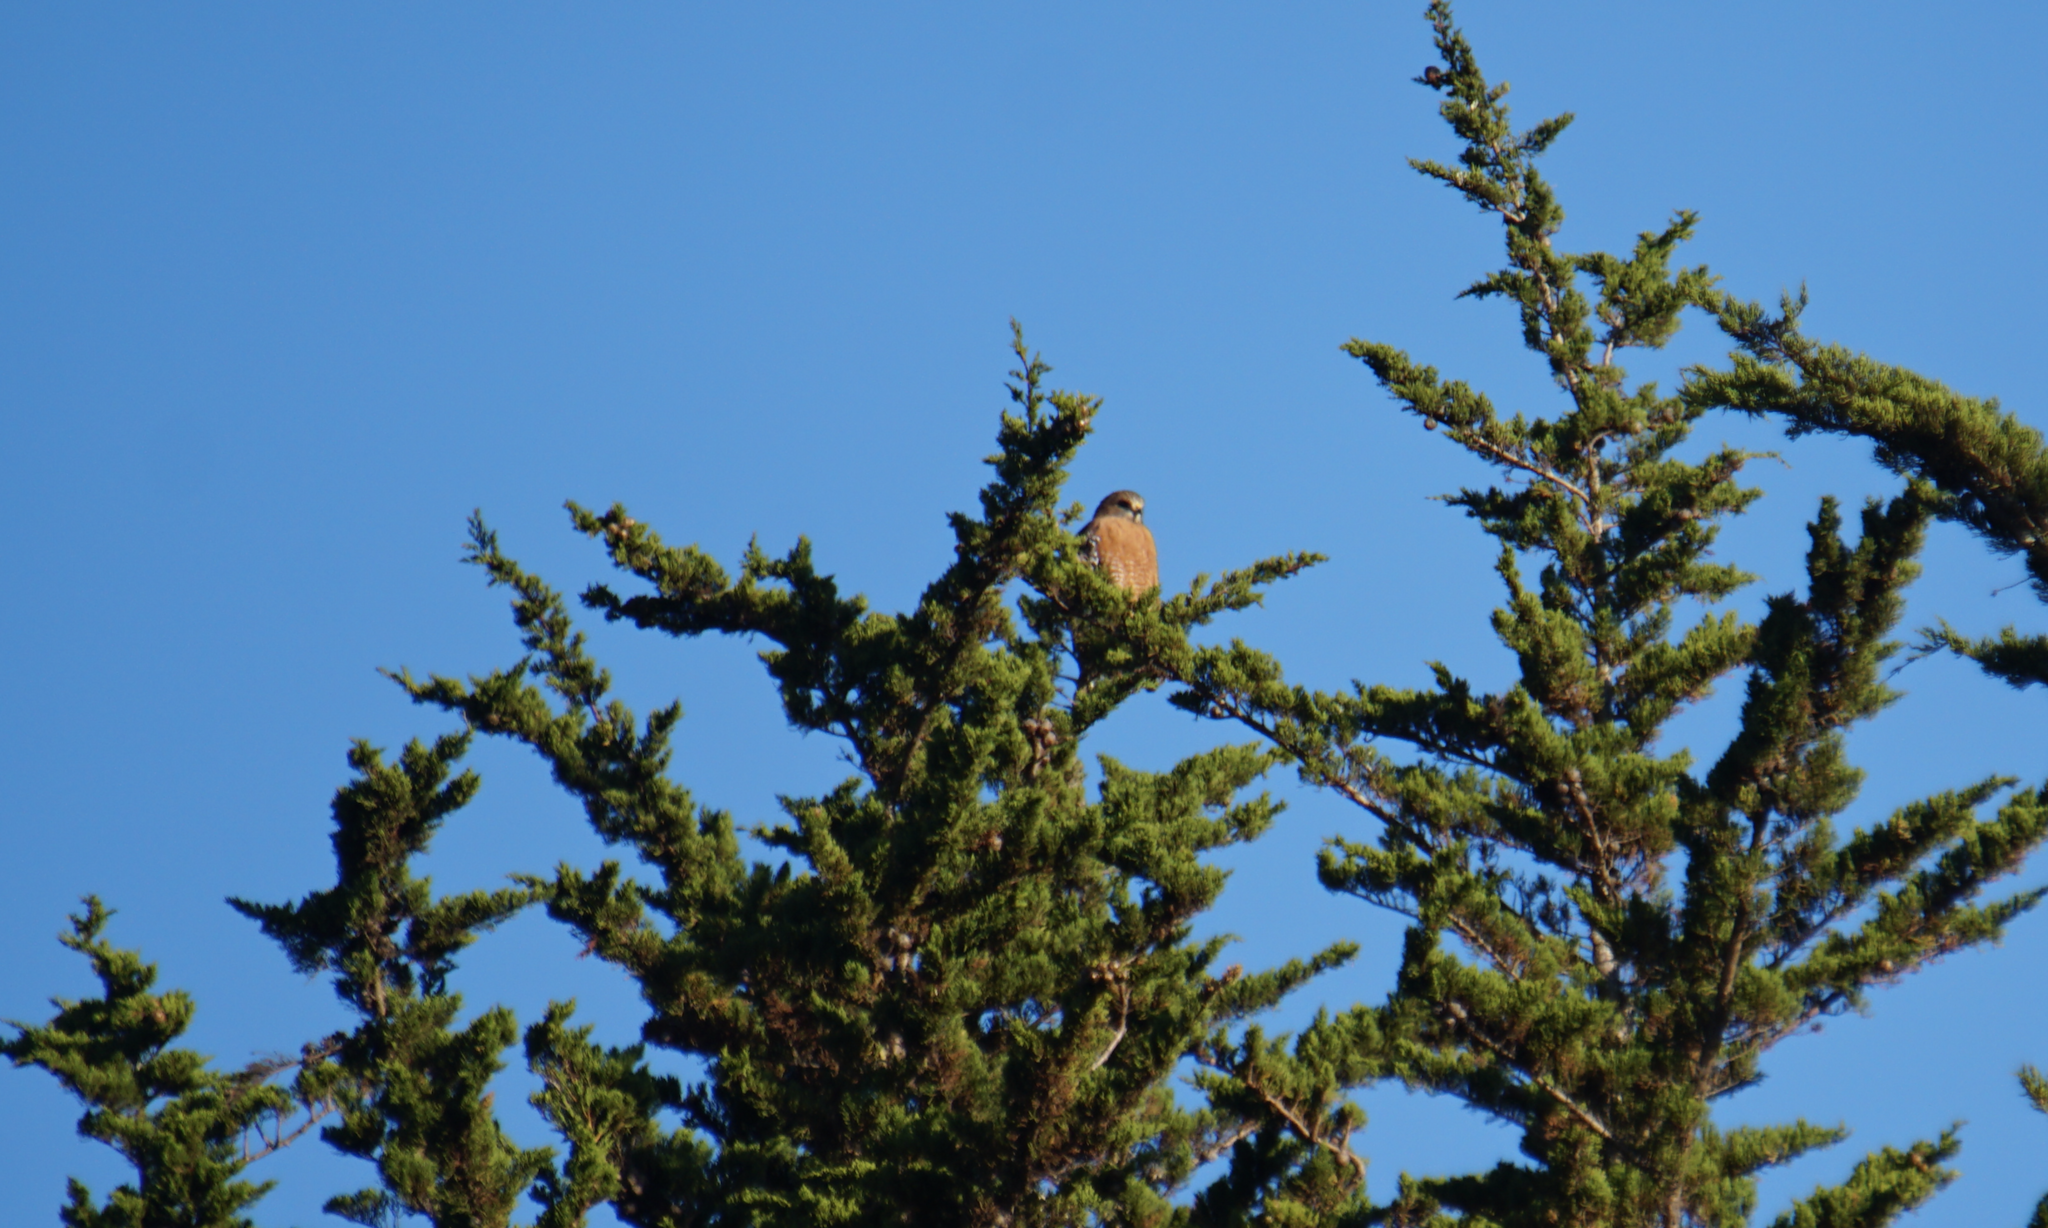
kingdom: Animalia
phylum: Chordata
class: Aves
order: Accipitriformes
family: Accipitridae
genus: Buteo
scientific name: Buteo lineatus
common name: Red-shouldered hawk
